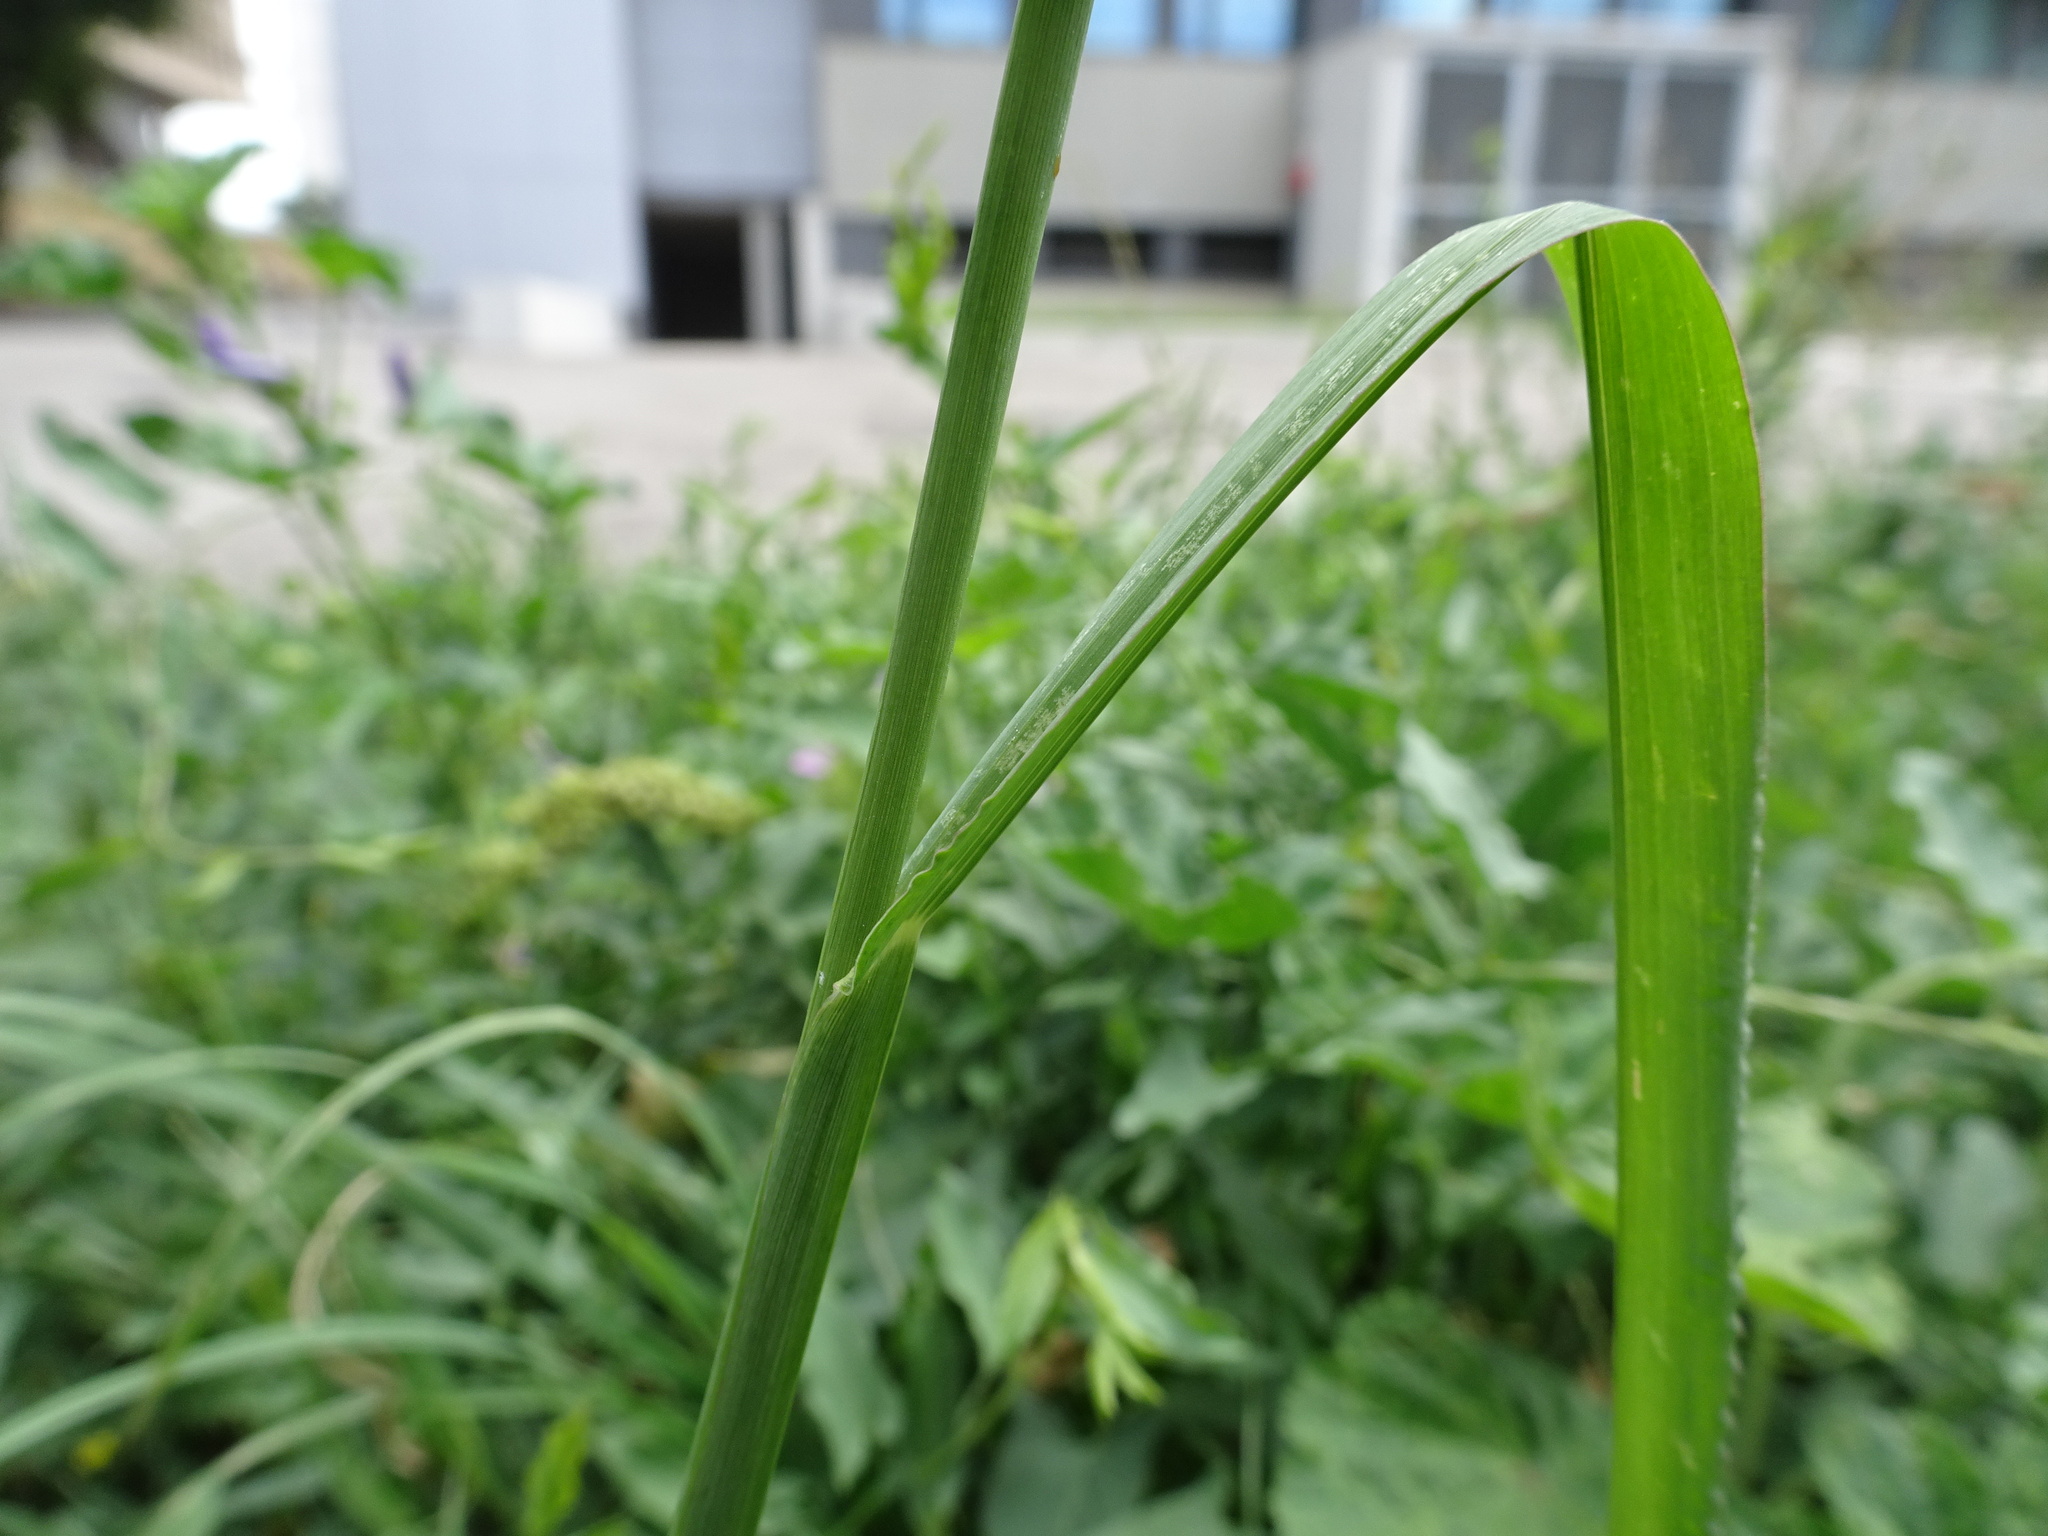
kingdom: Plantae
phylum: Tracheophyta
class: Liliopsida
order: Poales
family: Poaceae
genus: Echinochloa
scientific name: Echinochloa crus-galli
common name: Cockspur
